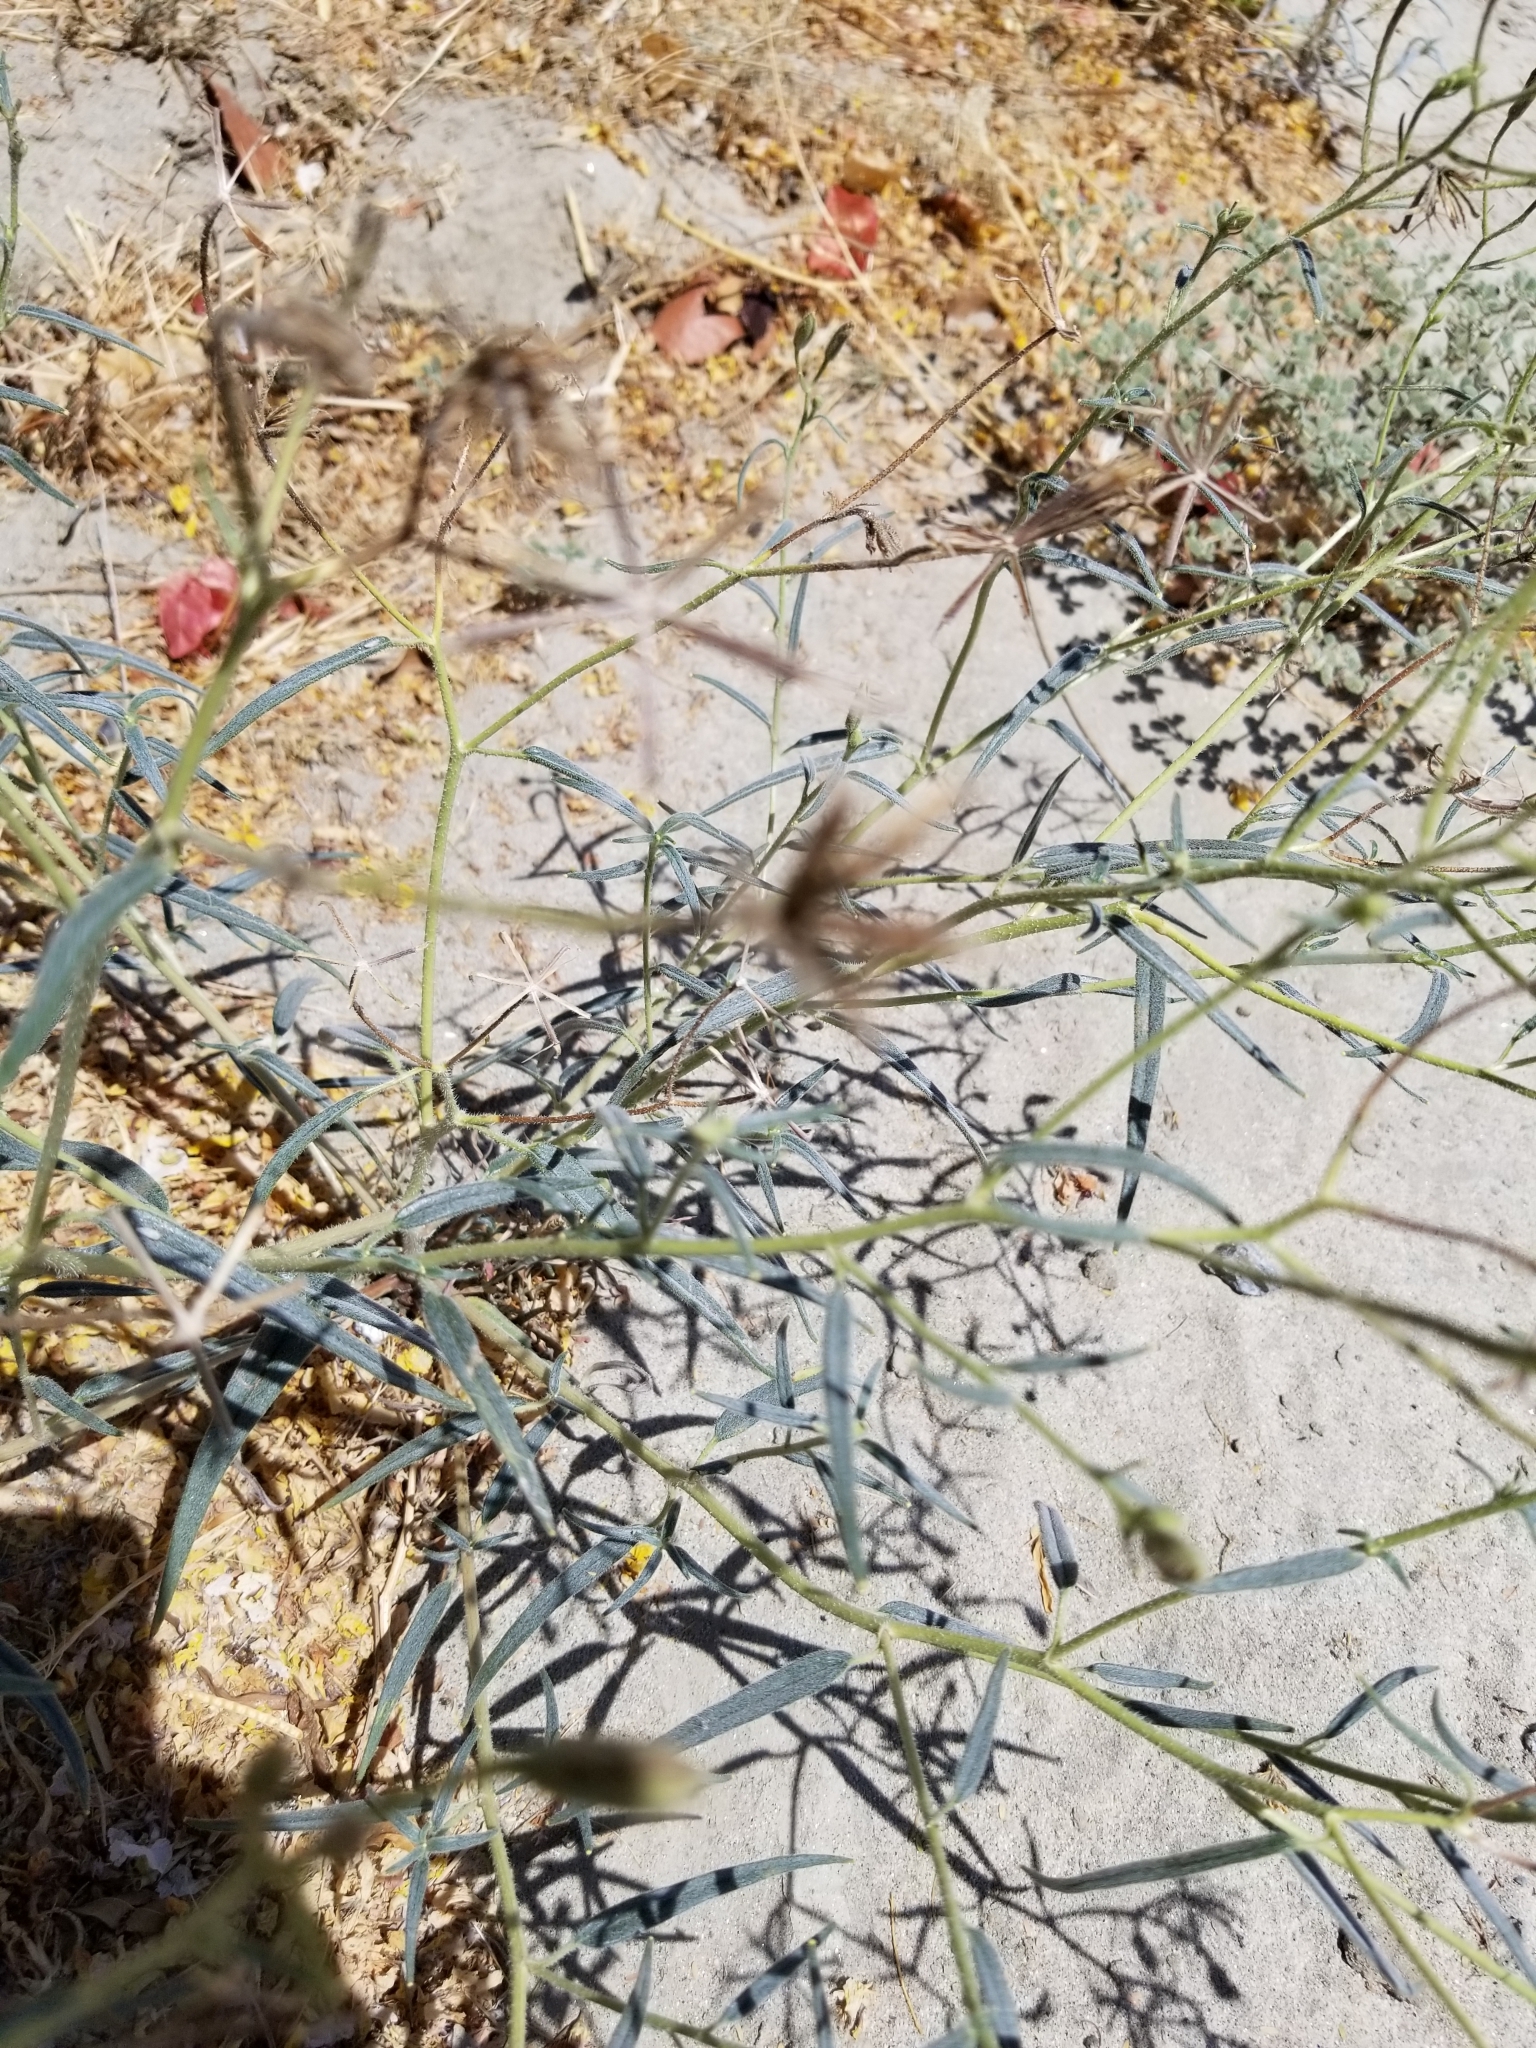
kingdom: Plantae
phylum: Tracheophyta
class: Magnoliopsida
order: Asterales
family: Asteraceae
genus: Palafoxia
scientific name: Palafoxia arida
